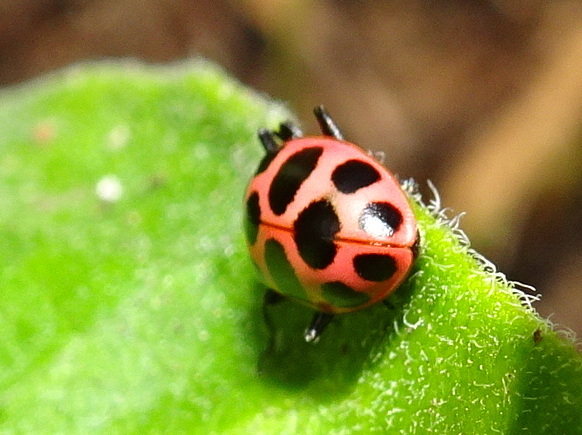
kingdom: Animalia
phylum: Arthropoda
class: Insecta
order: Coleoptera
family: Coccinellidae
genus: Coleomegilla
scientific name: Coleomegilla maculata
